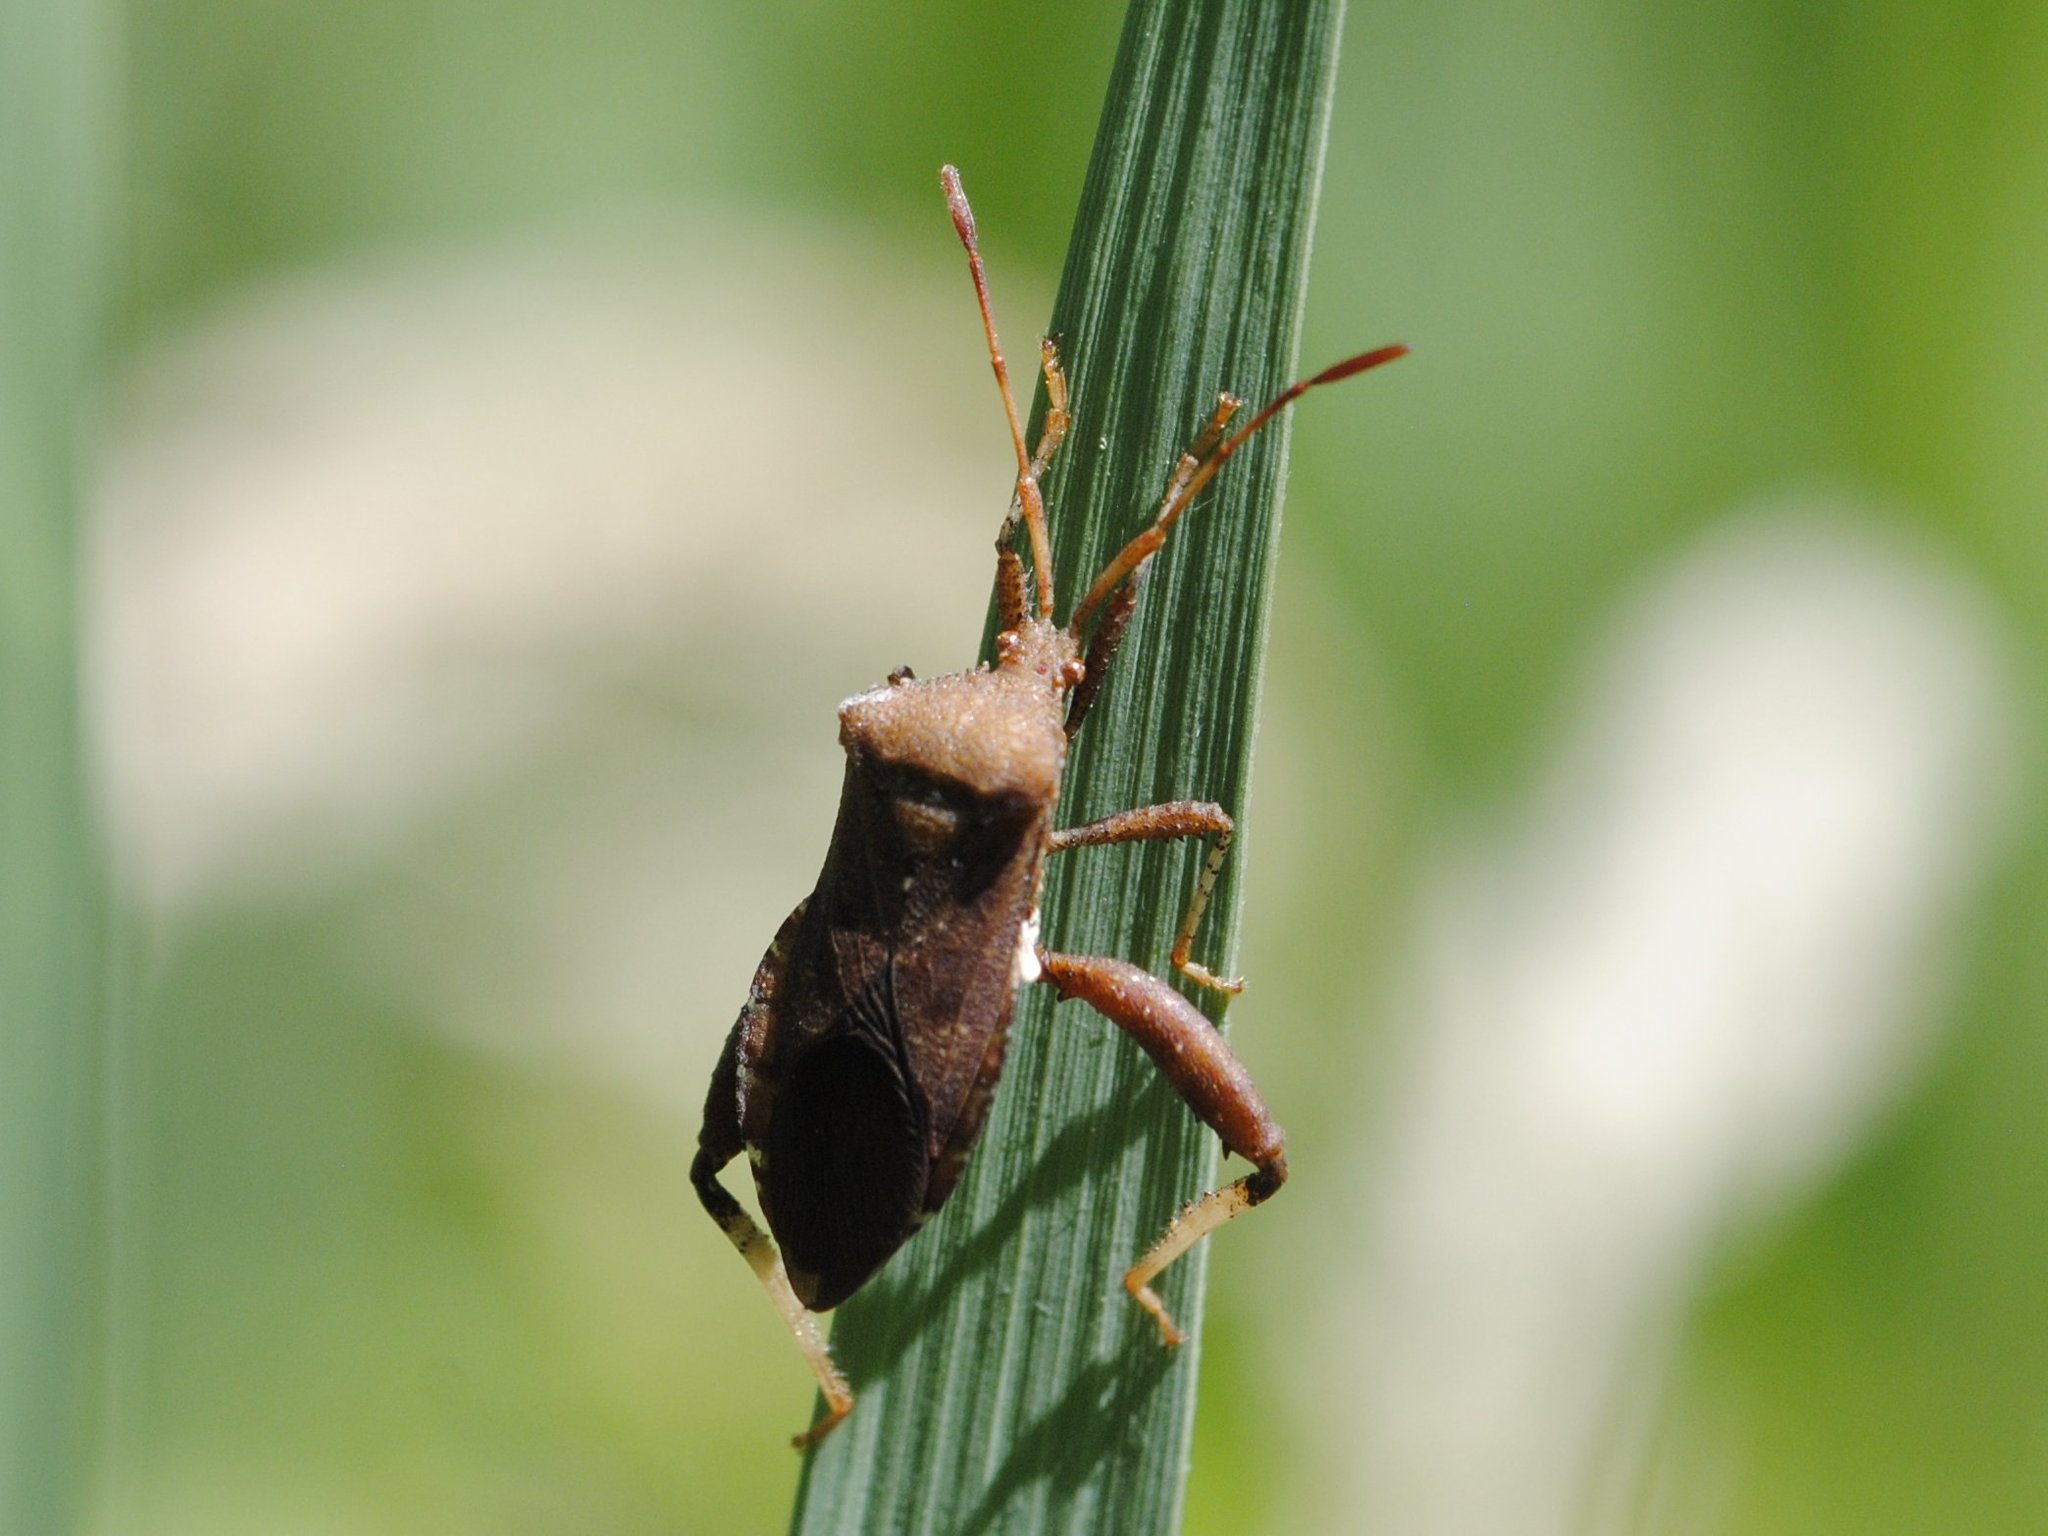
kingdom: Animalia
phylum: Arthropoda
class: Insecta
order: Hemiptera
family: Coreidae
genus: Euthochtha
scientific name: Euthochtha galeator
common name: Helmeted squash bug
